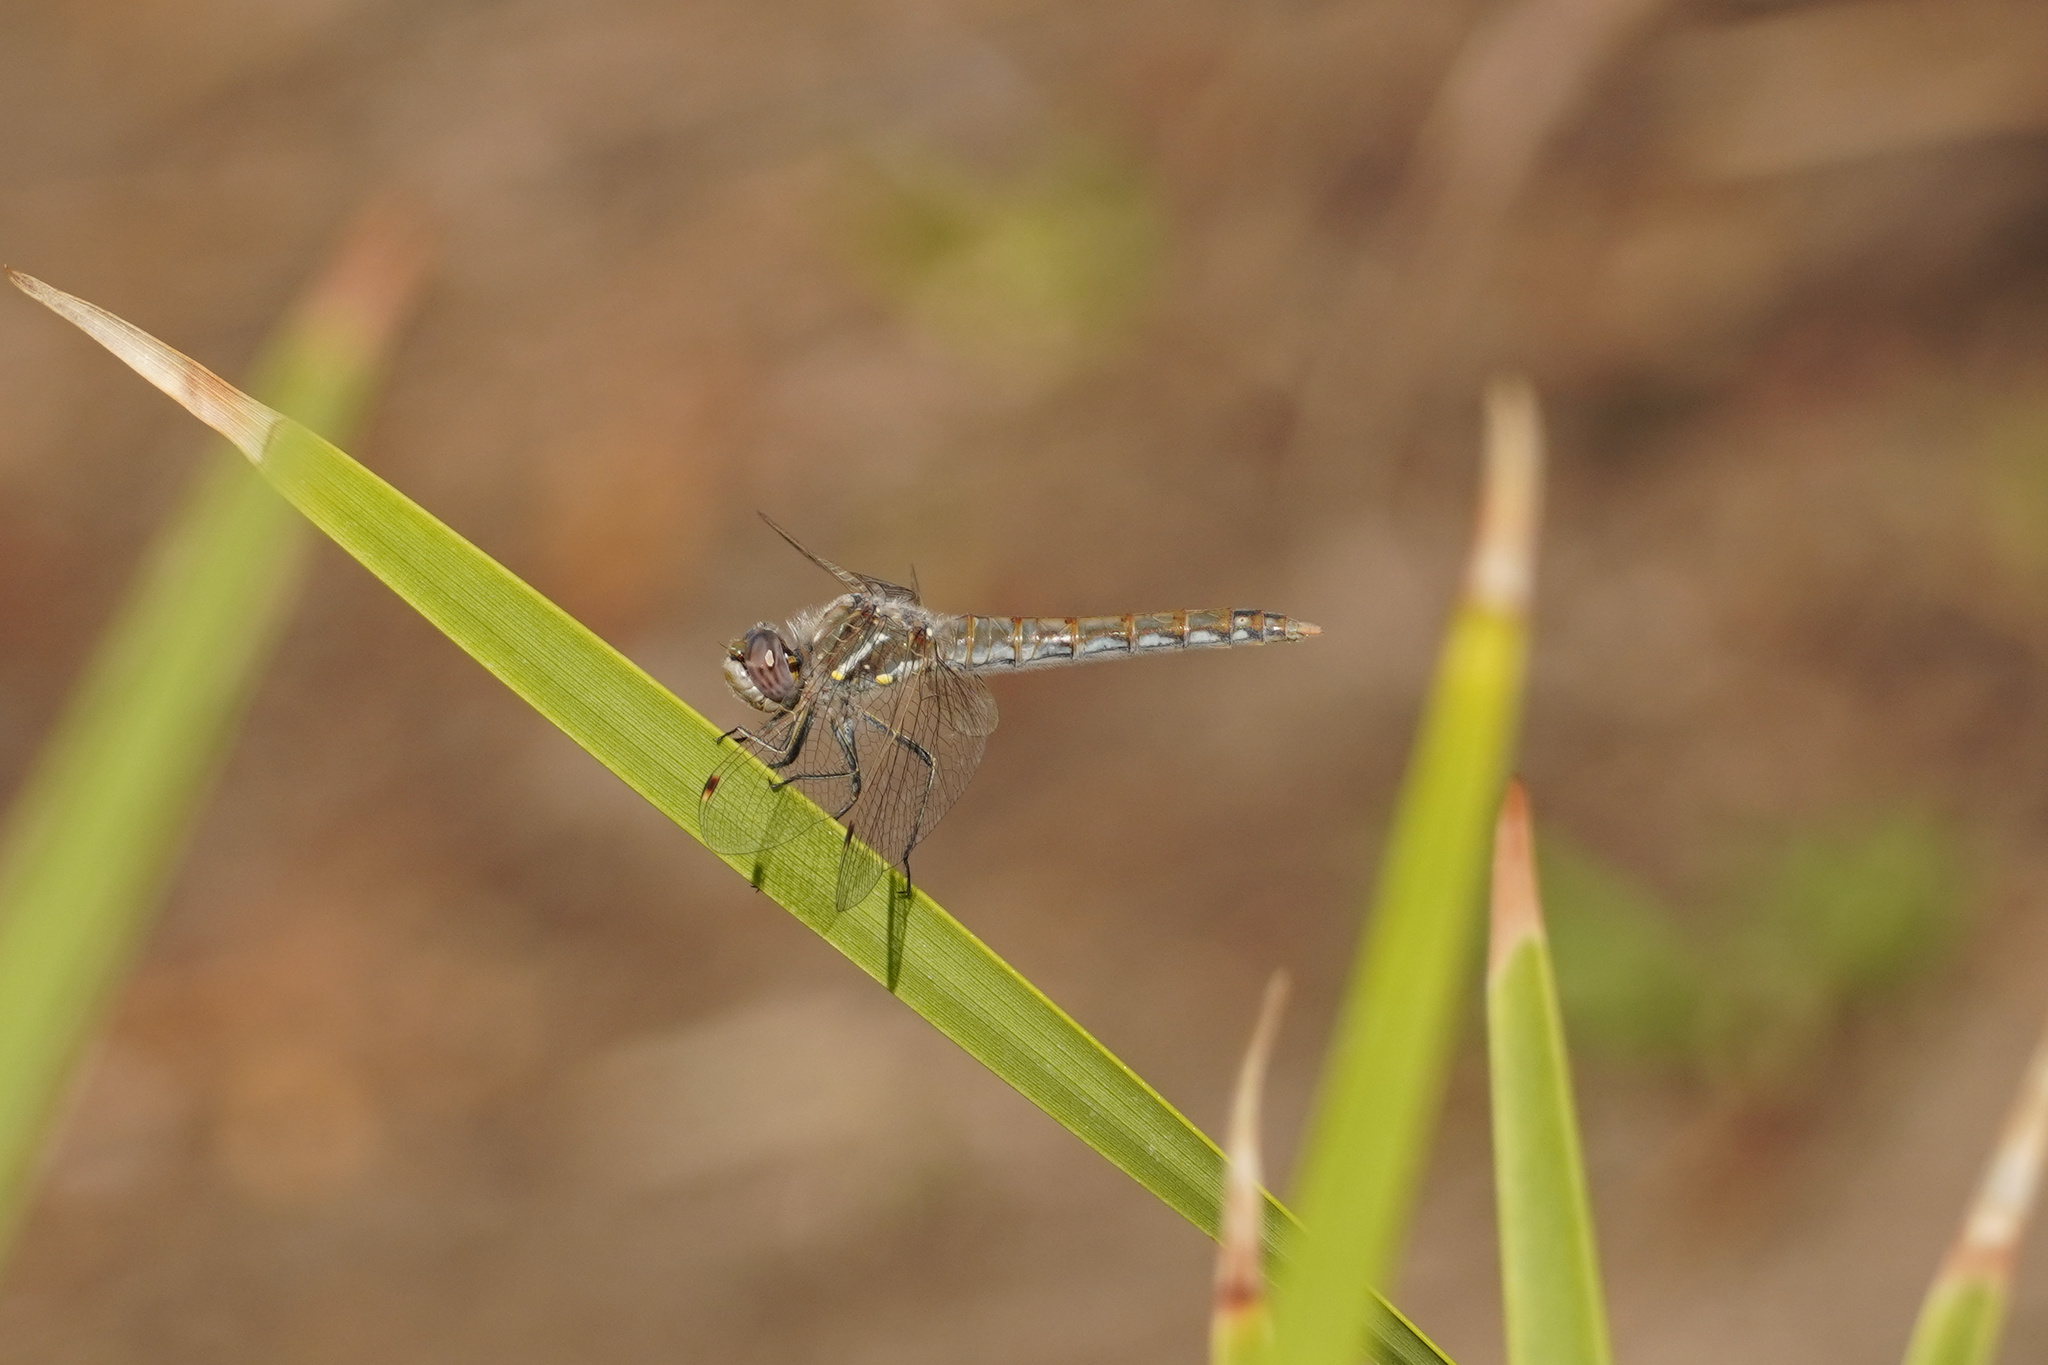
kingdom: Animalia
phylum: Arthropoda
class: Insecta
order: Odonata
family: Libellulidae
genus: Sympetrum
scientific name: Sympetrum corruptum
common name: Variegated meadowhawk
